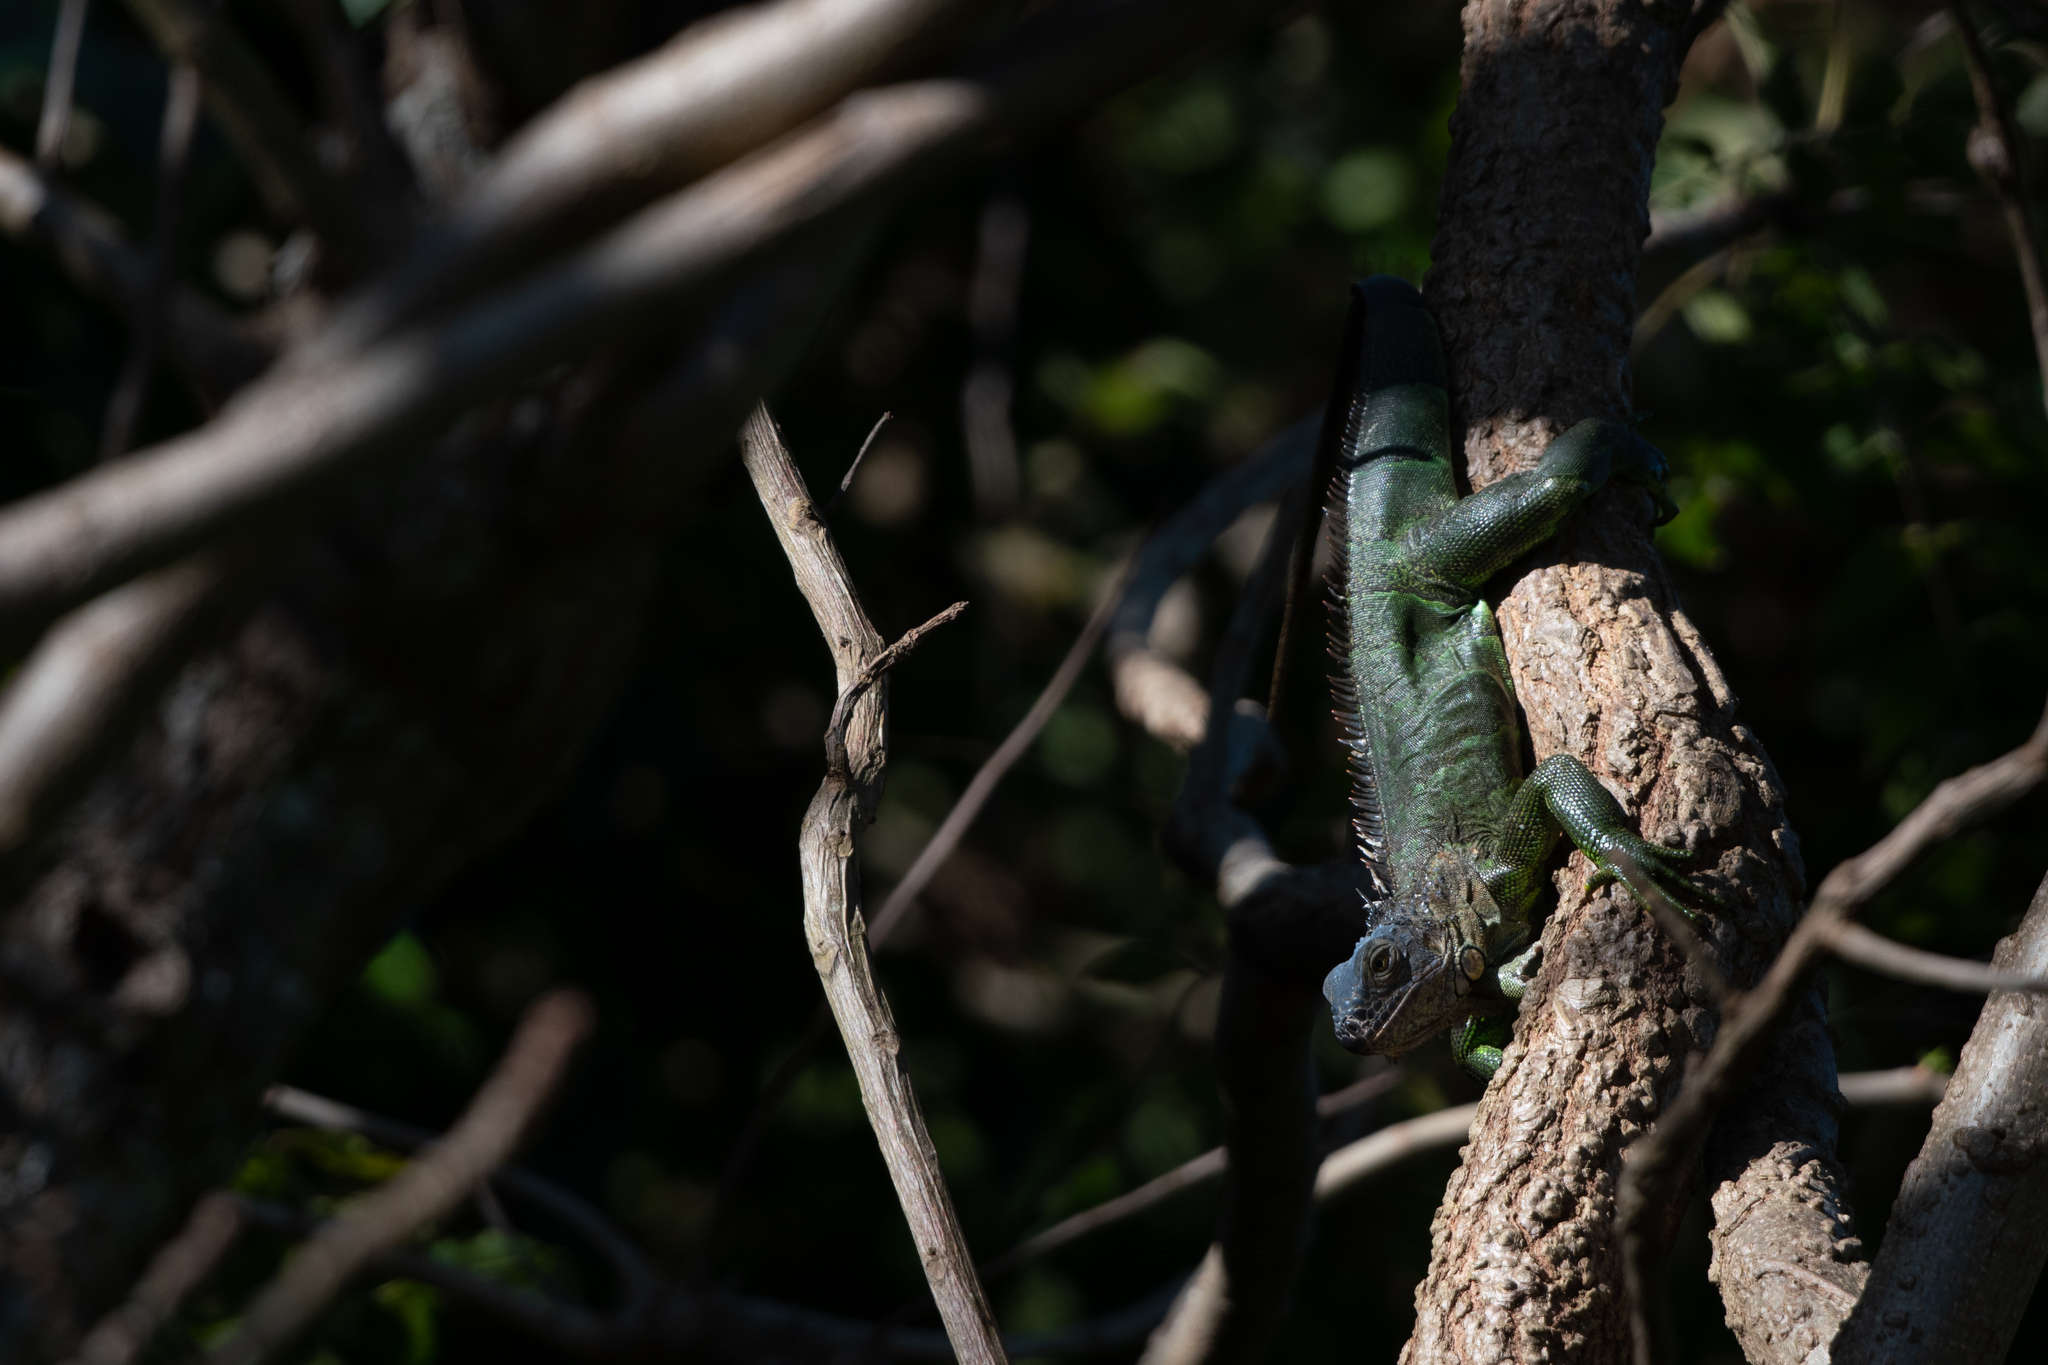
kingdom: Animalia
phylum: Chordata
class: Squamata
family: Iguanidae
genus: Iguana
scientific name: Iguana iguana
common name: Green iguana
